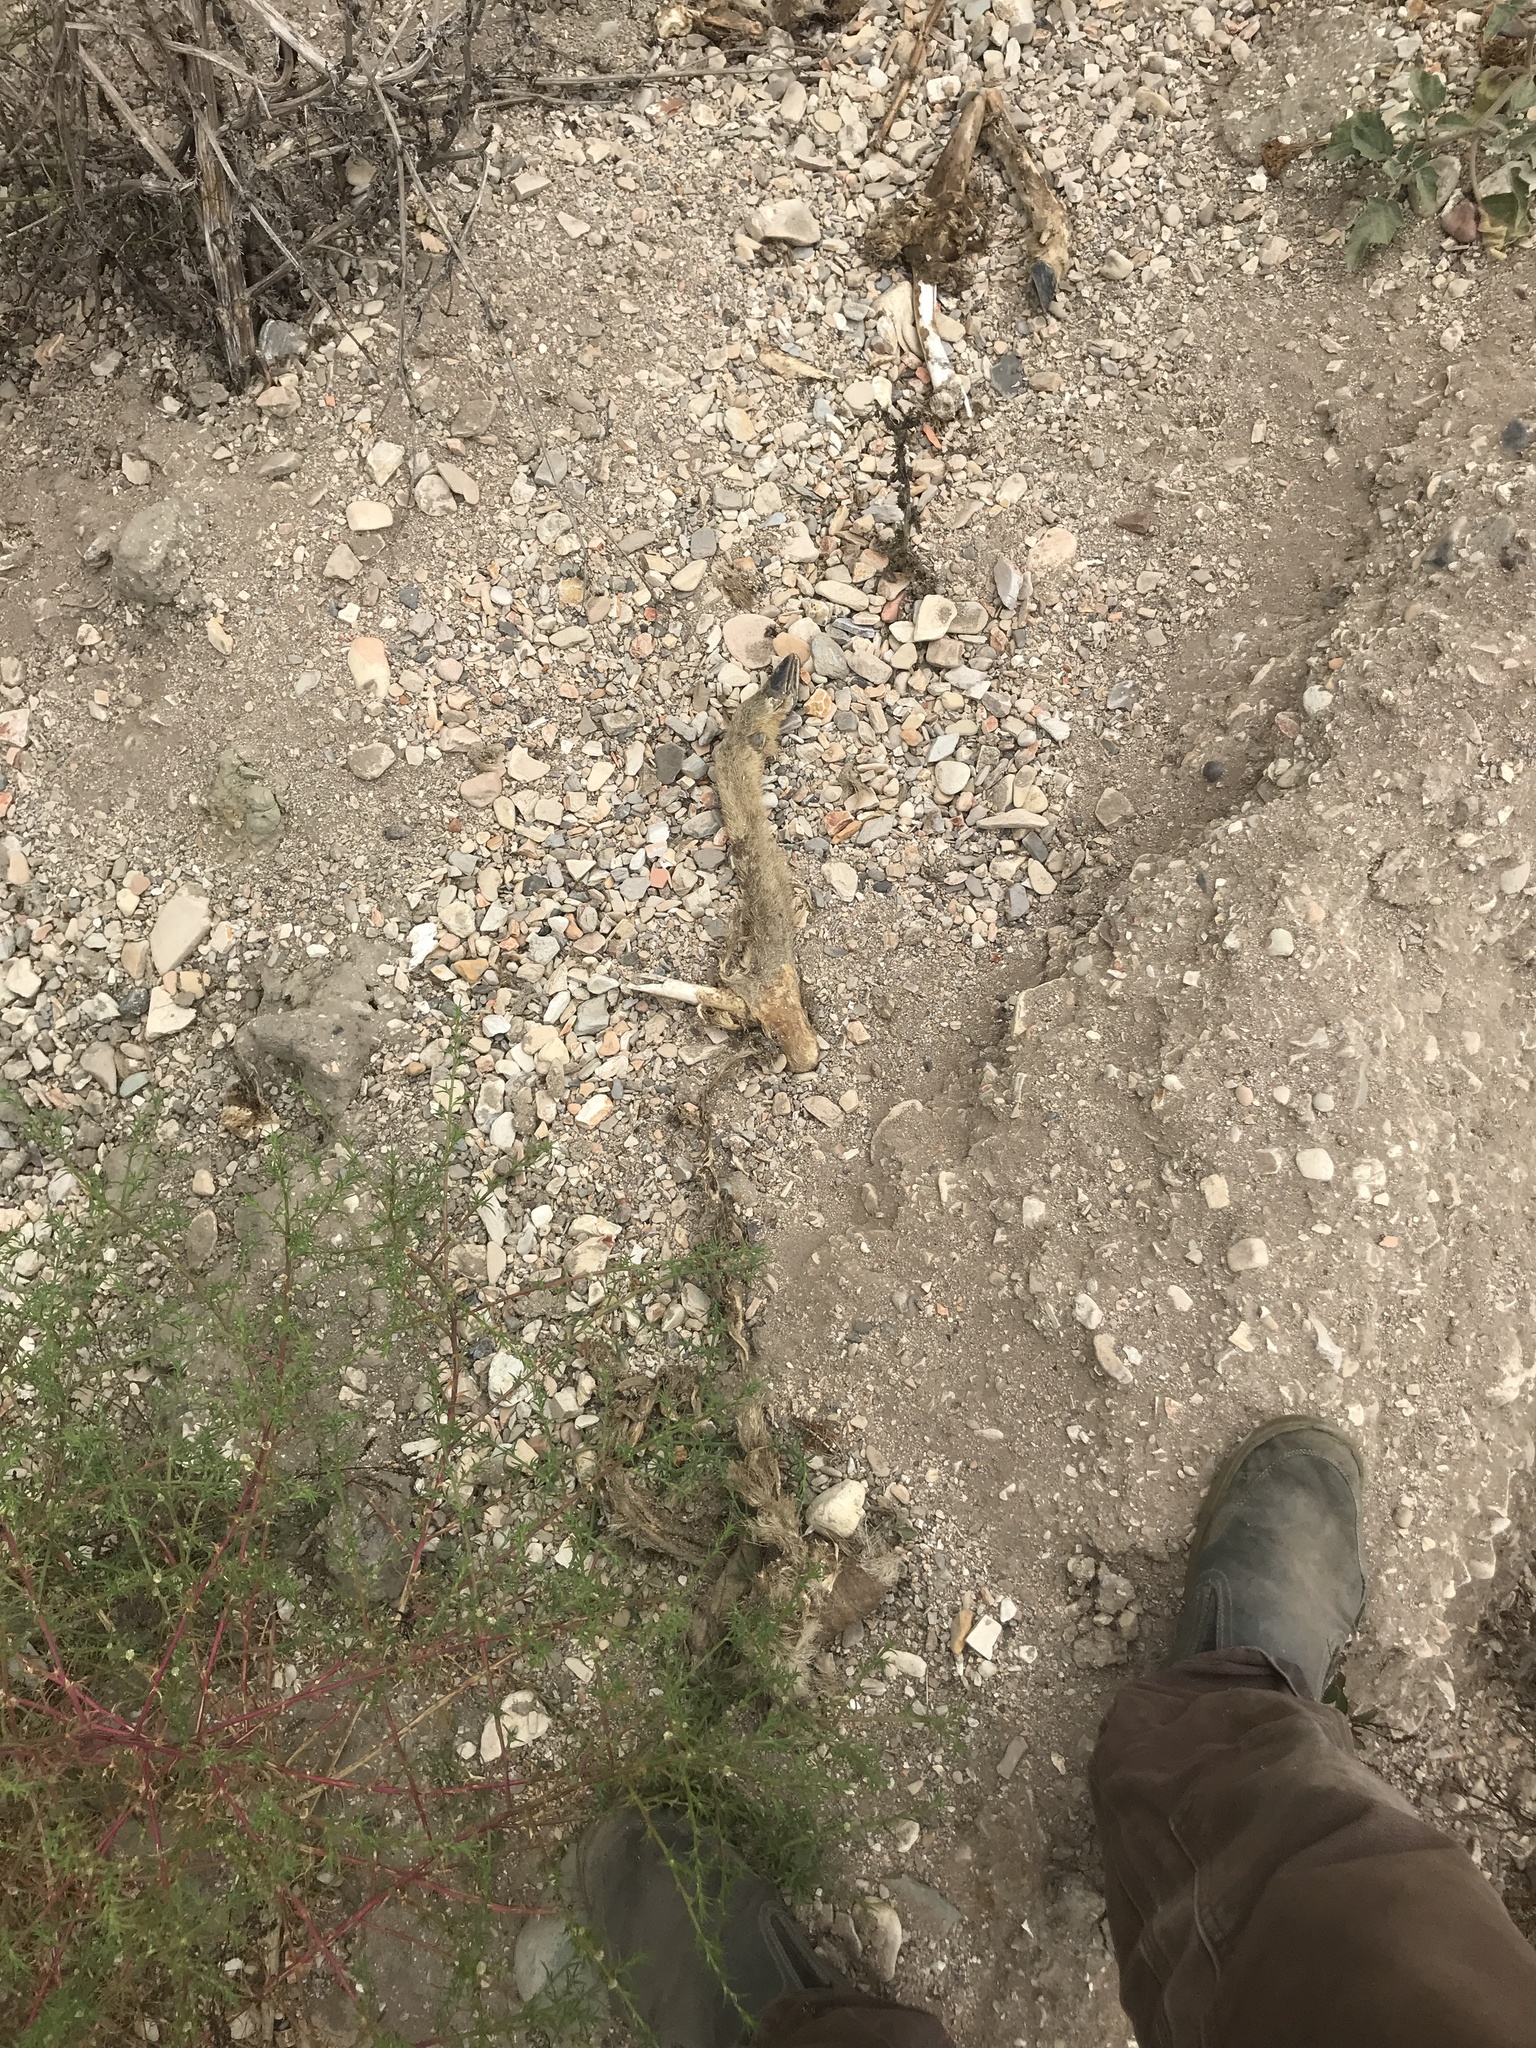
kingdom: Animalia
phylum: Chordata
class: Mammalia
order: Artiodactyla
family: Cervidae
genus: Odocoileus
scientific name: Odocoileus hemionus
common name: Mule deer
